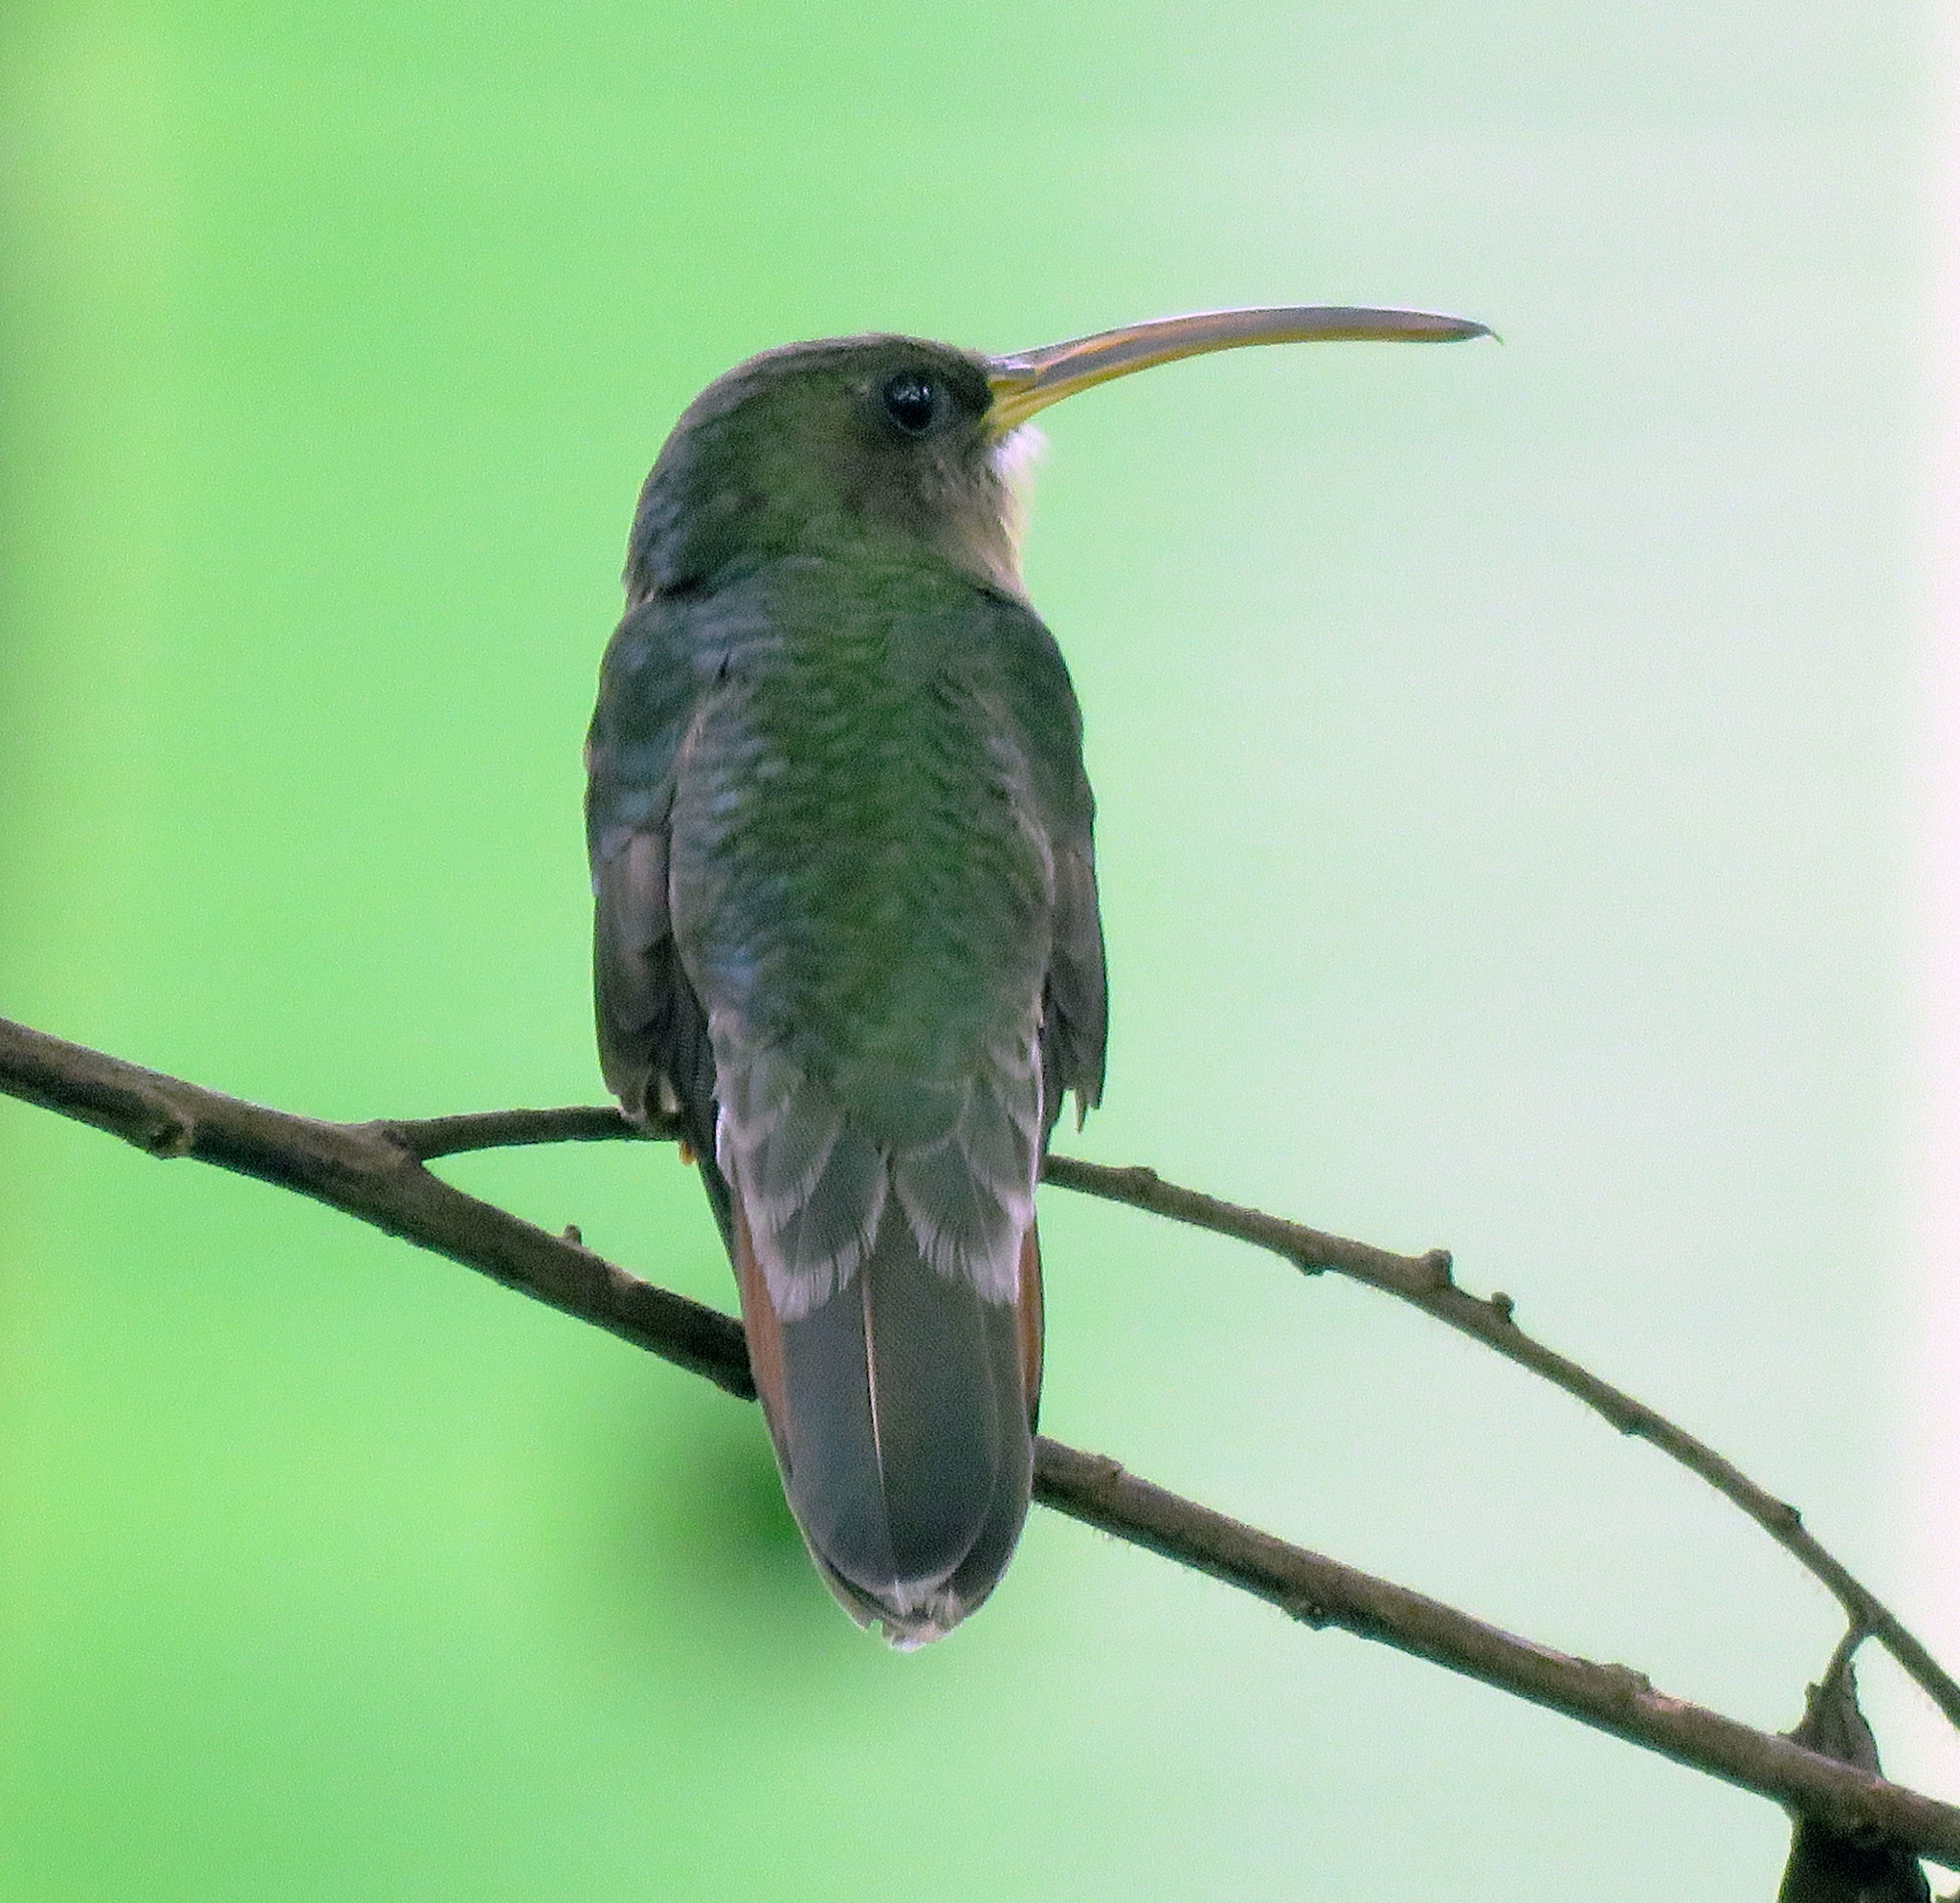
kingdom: Animalia
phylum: Chordata
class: Aves
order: Apodiformes
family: Trochilidae
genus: Glaucis
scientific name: Glaucis hirsutus
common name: Rufous-breasted hermit
